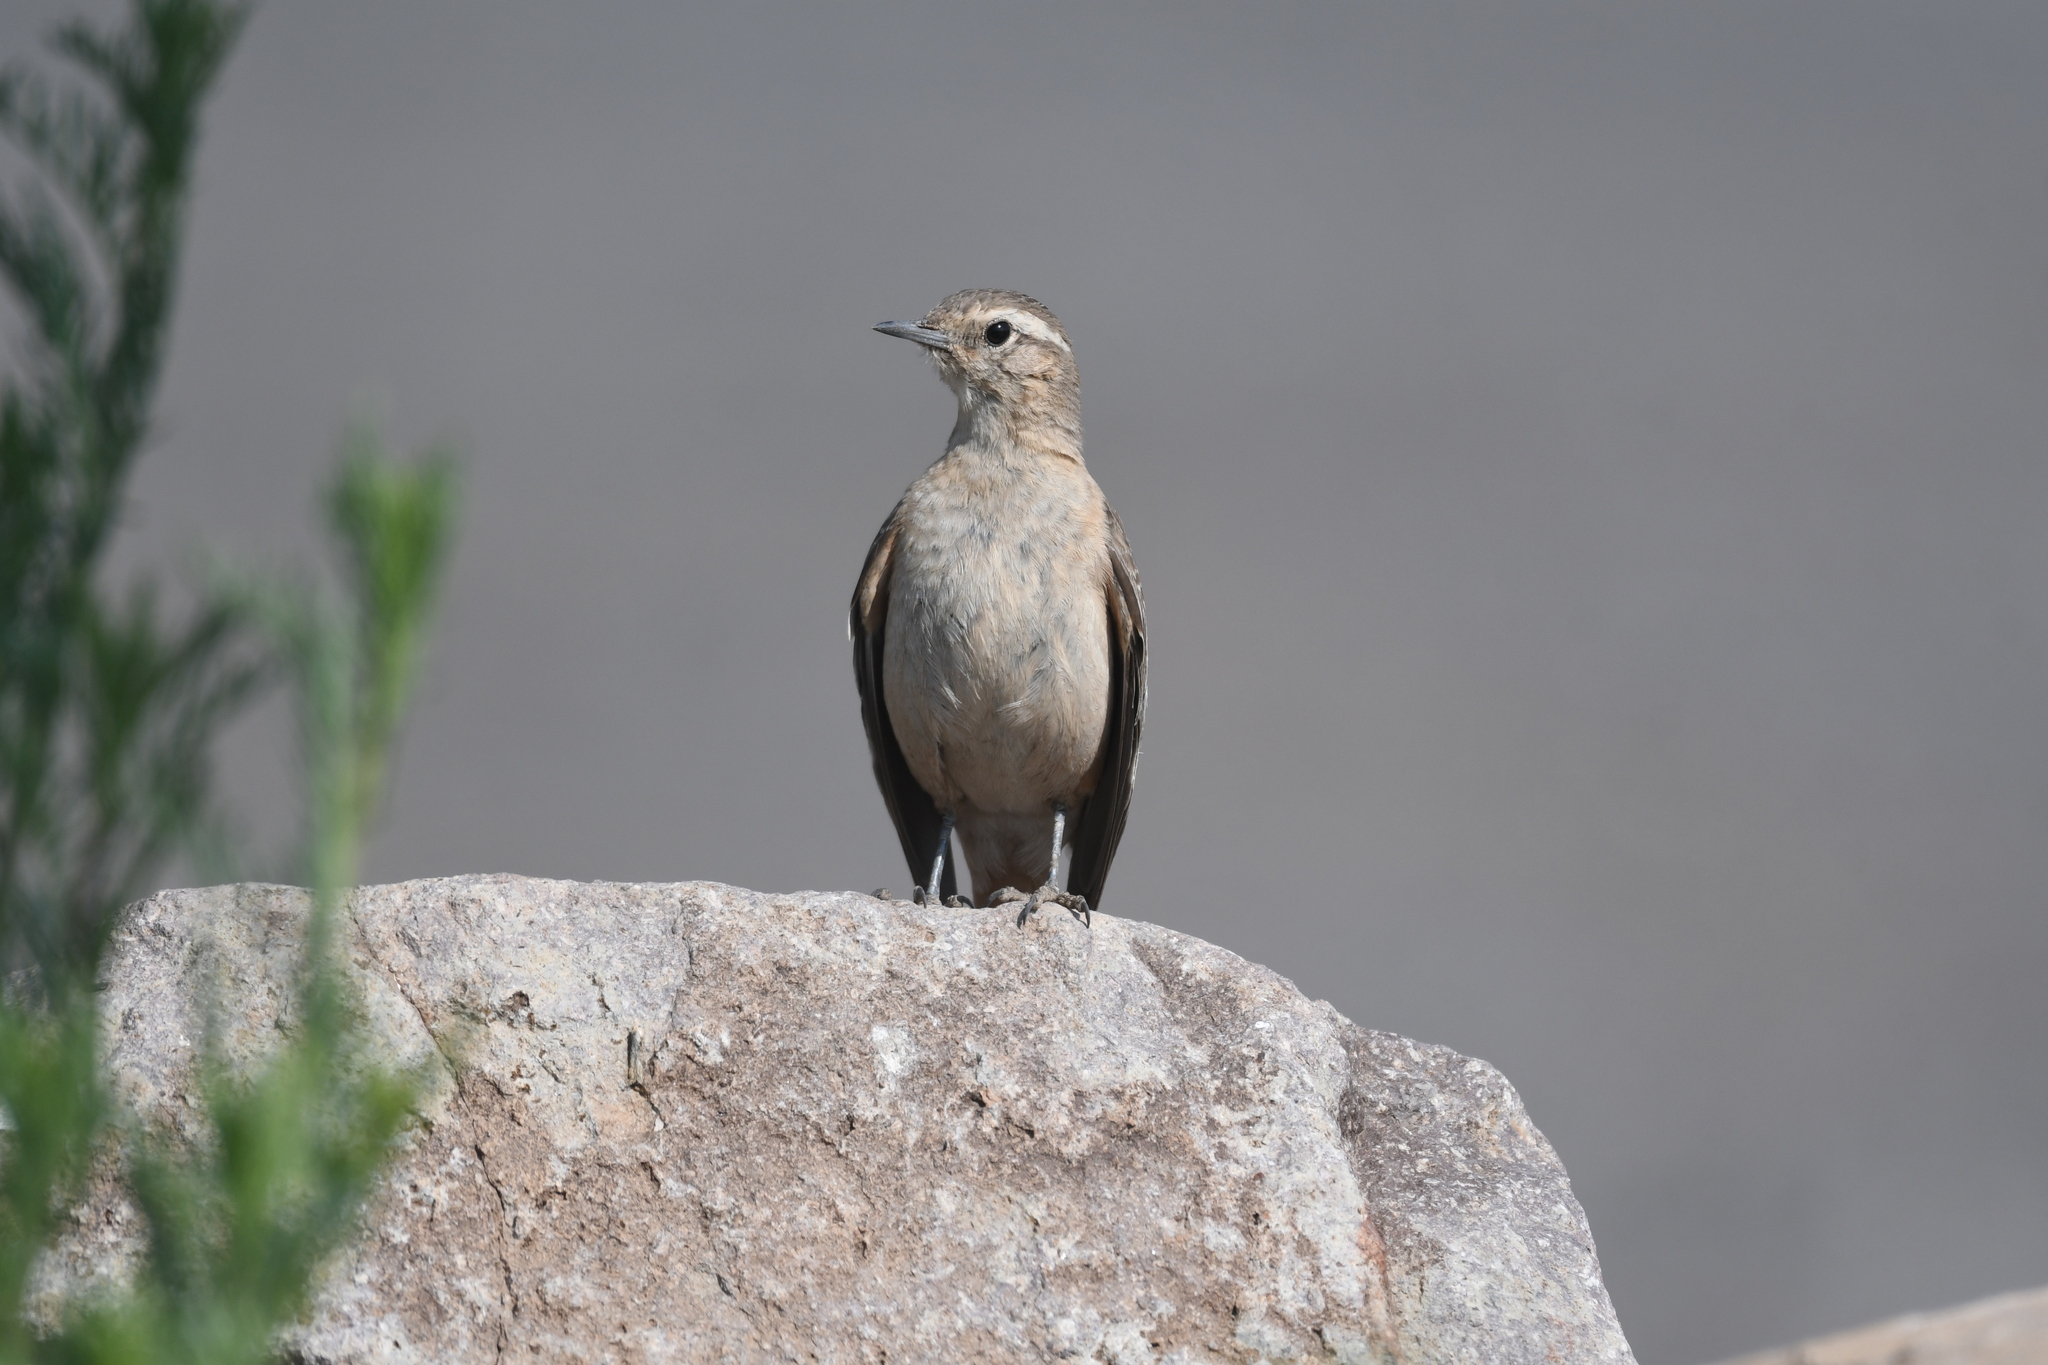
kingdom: Animalia
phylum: Chordata
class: Aves
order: Passeriformes
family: Furnariidae
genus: Geositta
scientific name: Geositta rufipennis
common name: Rufous-banded miner
